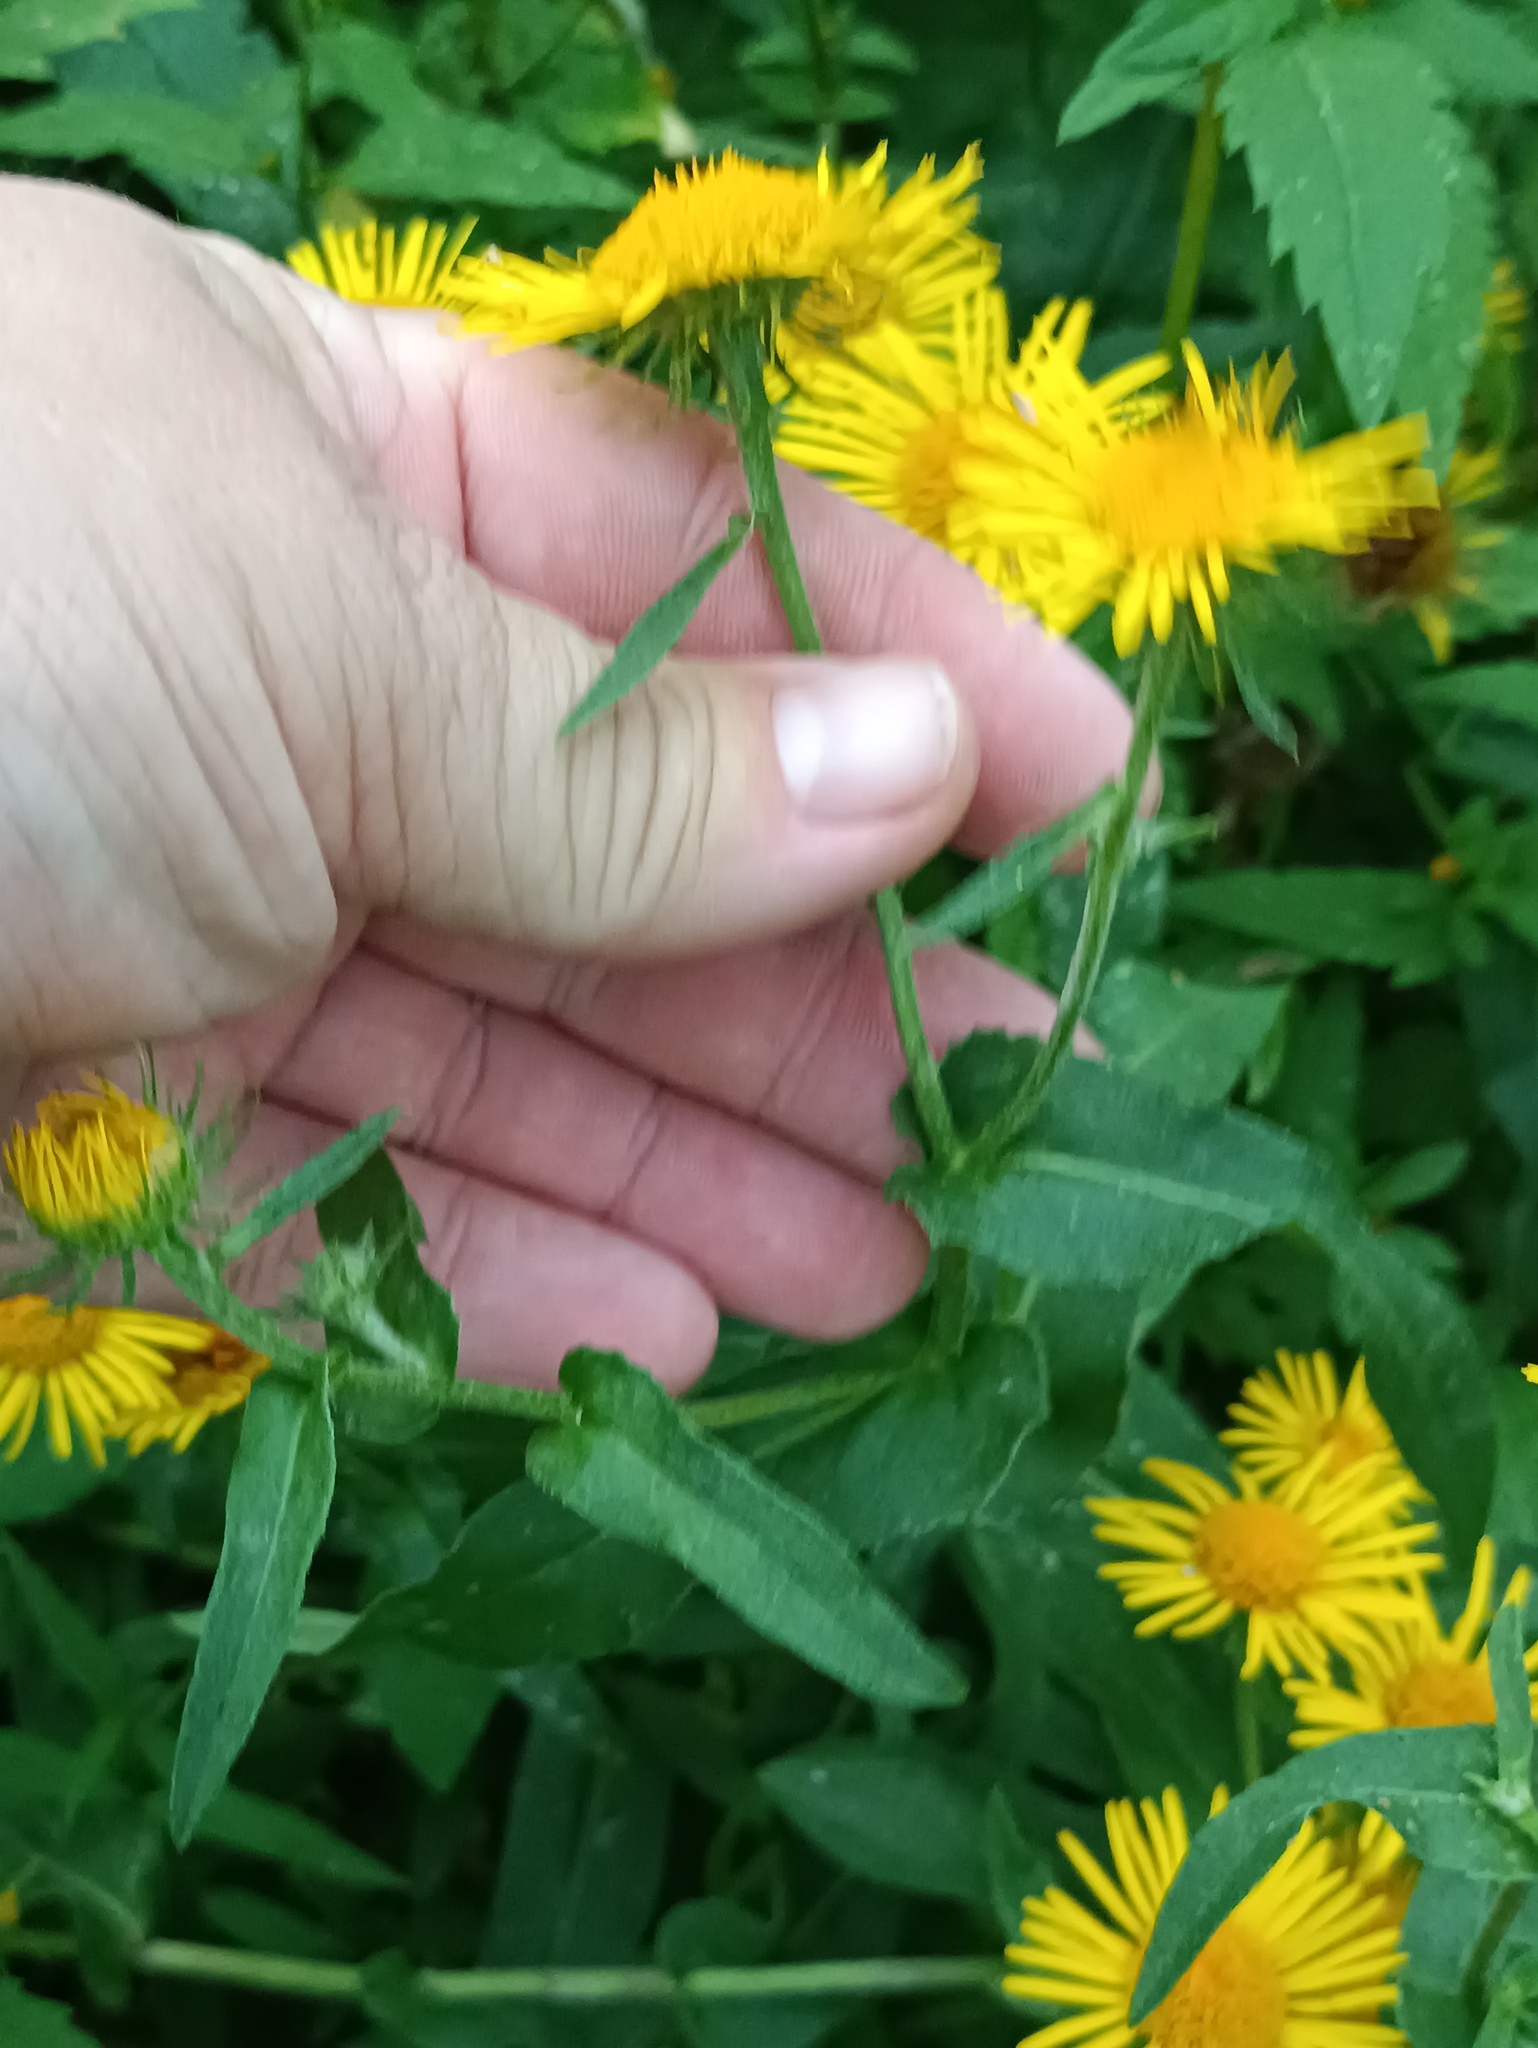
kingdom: Plantae
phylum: Tracheophyta
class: Magnoliopsida
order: Asterales
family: Asteraceae
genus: Pentanema
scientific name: Pentanema britannicum
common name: British elecampane
